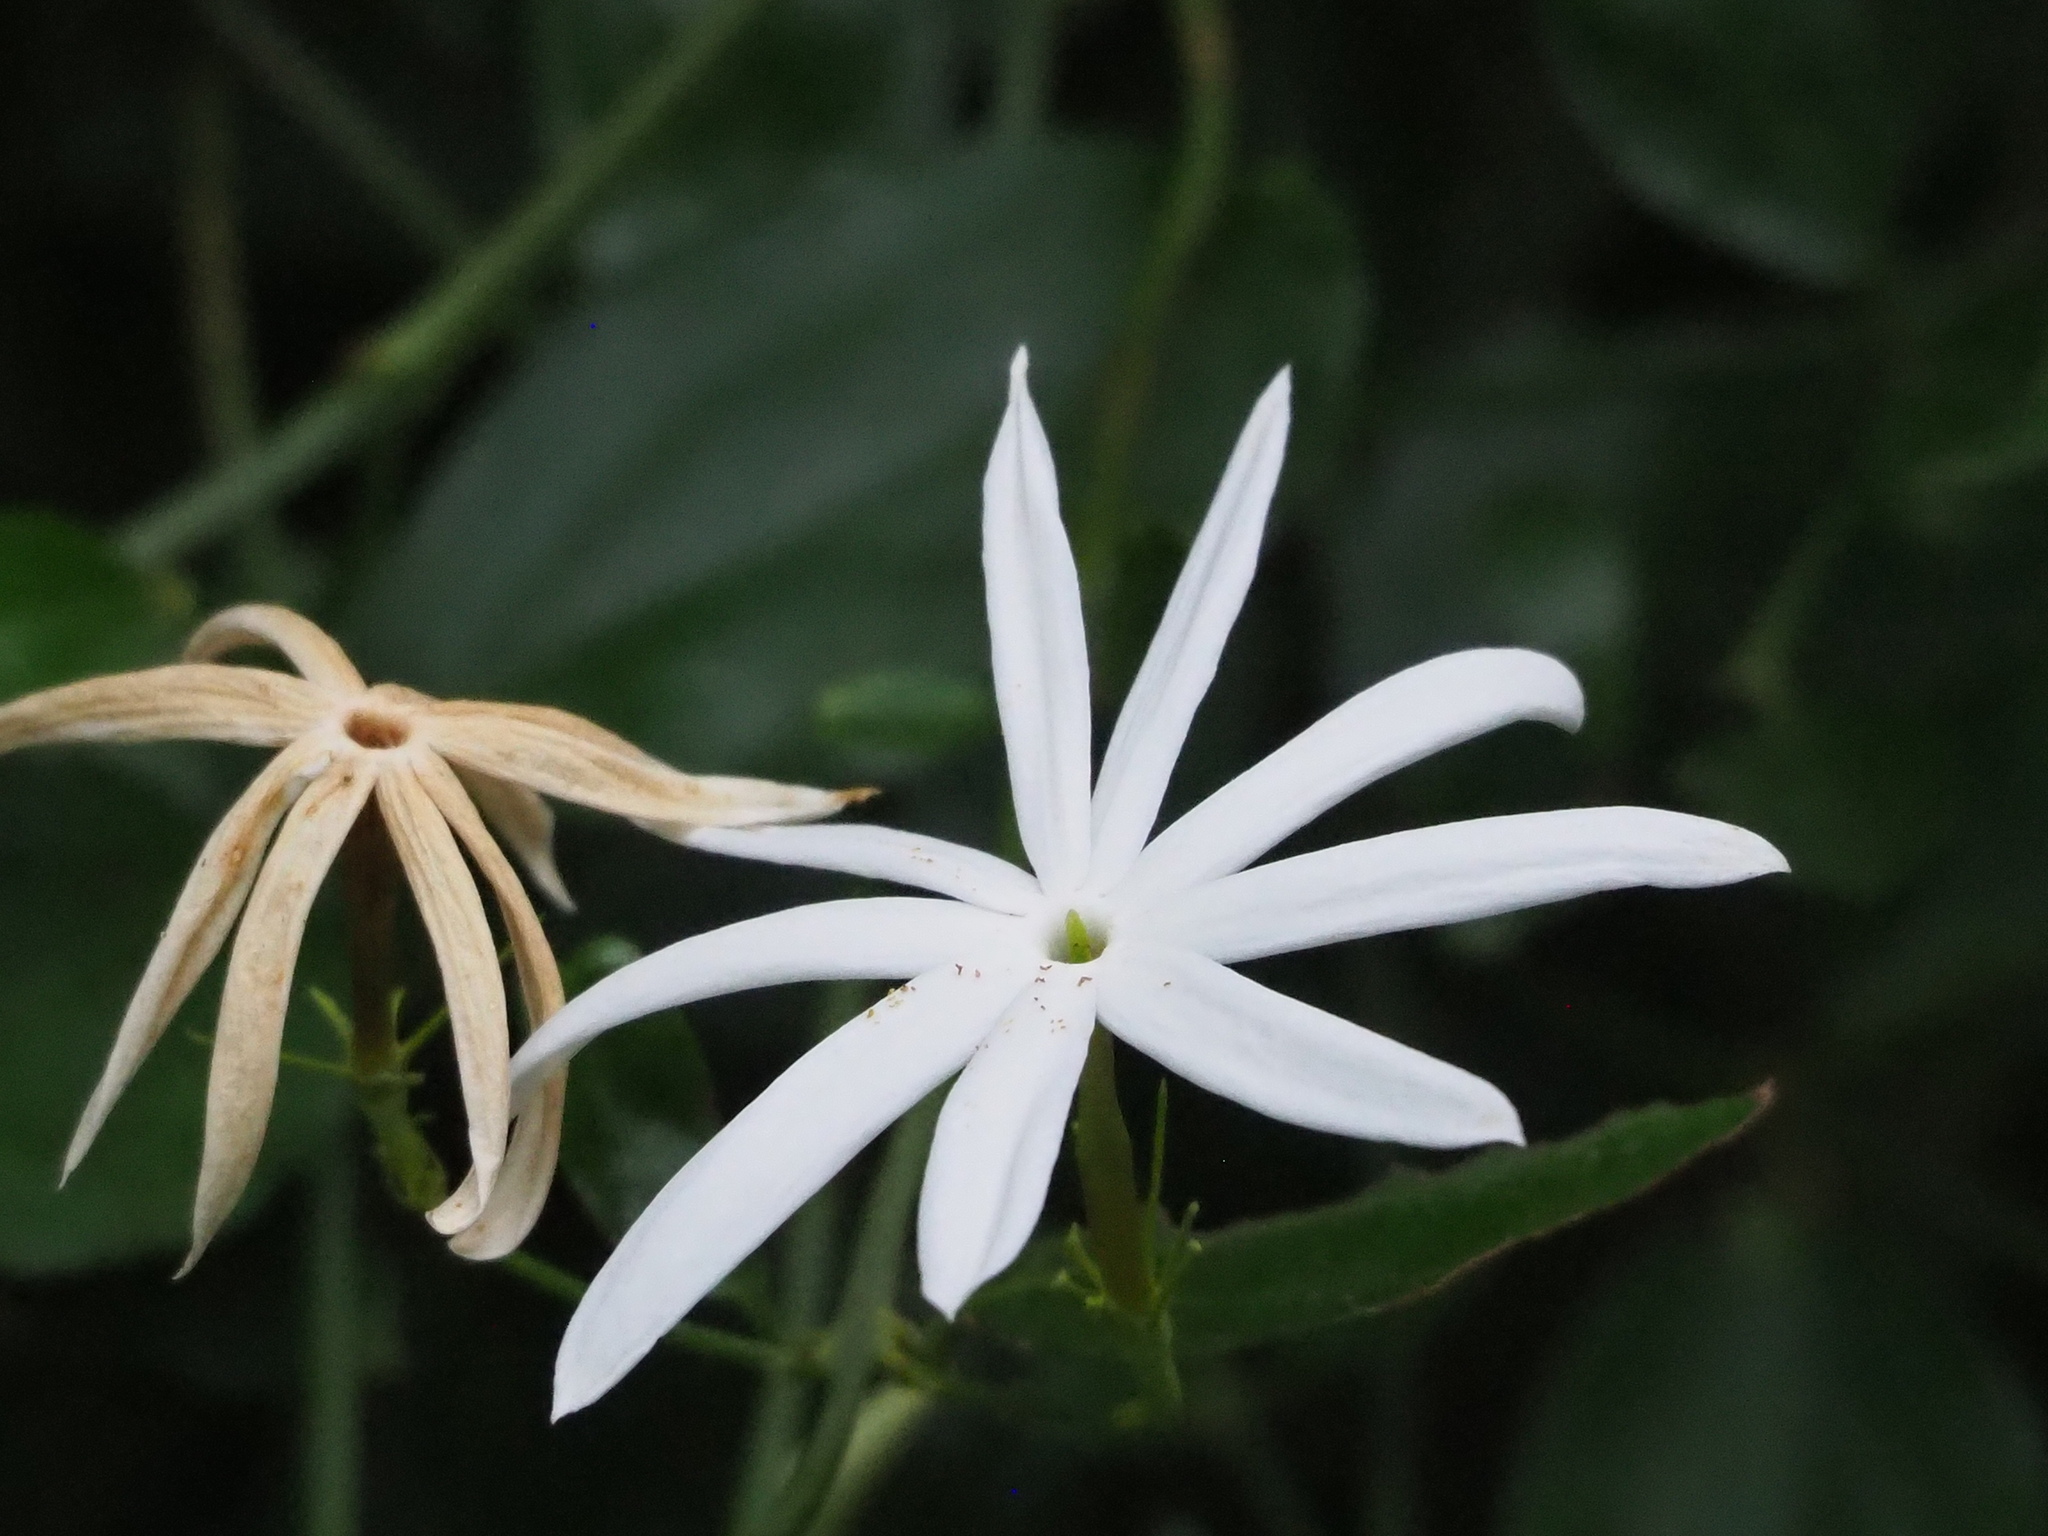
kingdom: Plantae
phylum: Tracheophyta
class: Magnoliopsida
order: Lamiales
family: Oleaceae
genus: Jasminum
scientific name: Jasminum nervosum
